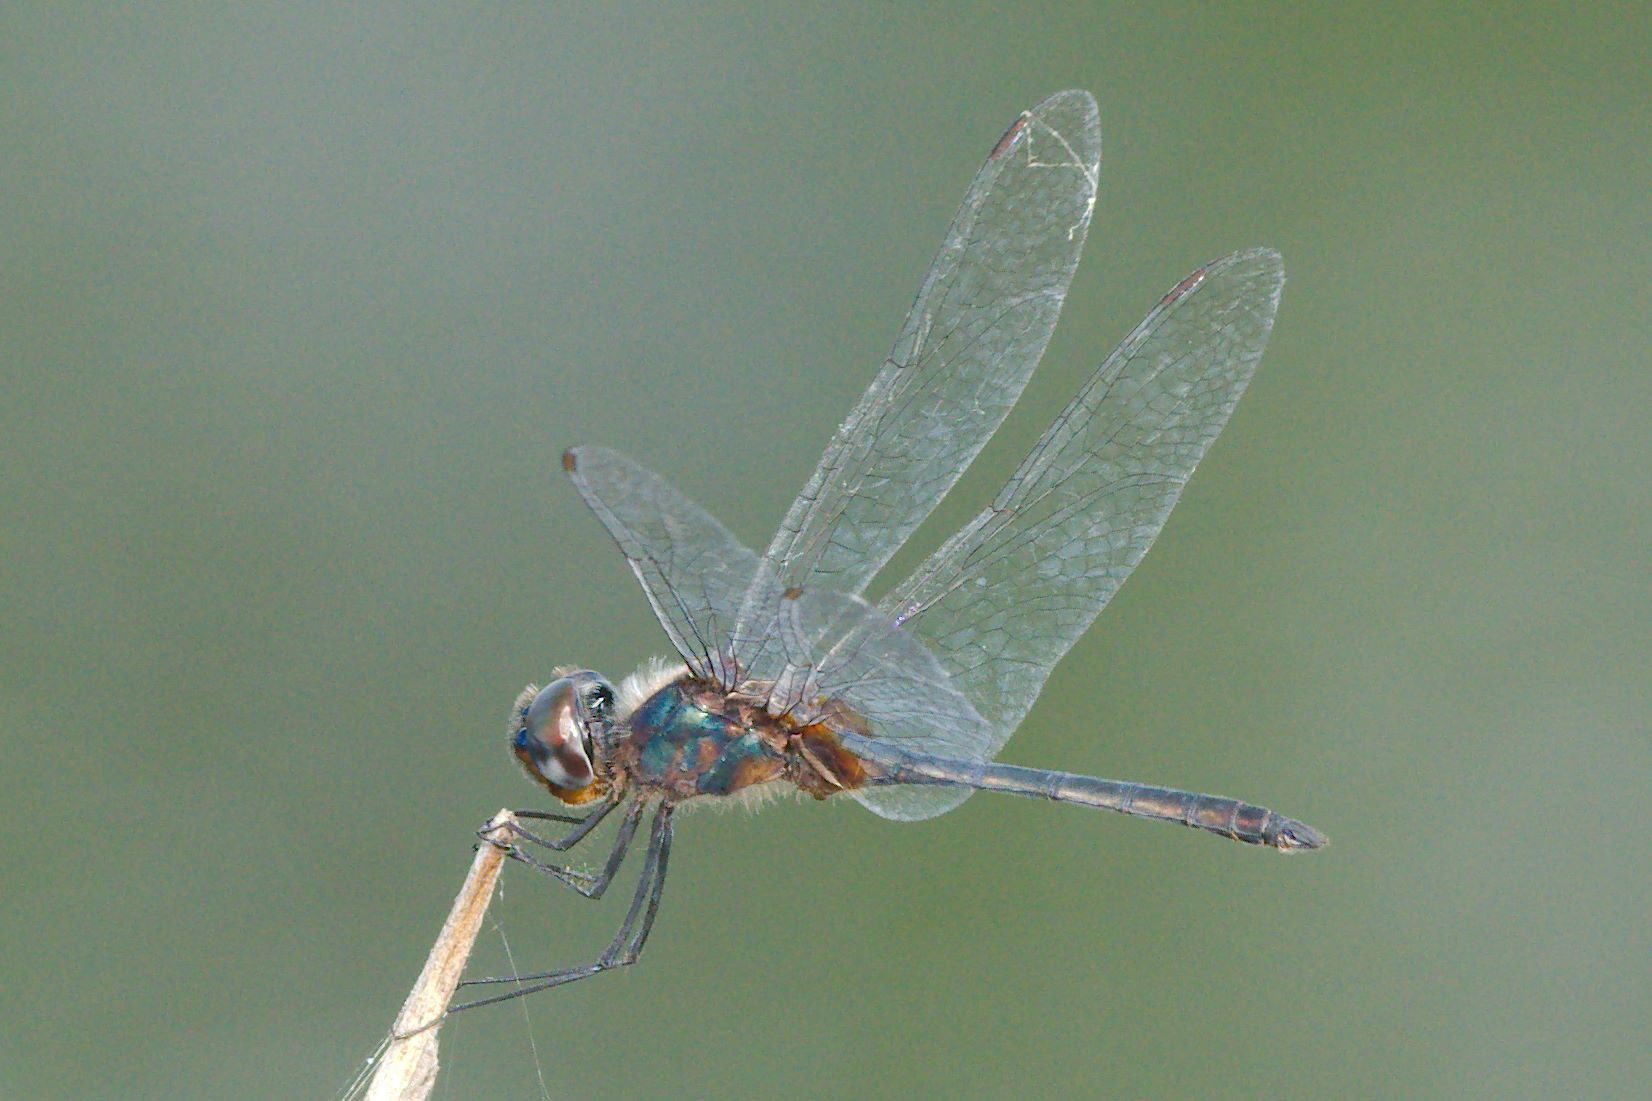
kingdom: Animalia
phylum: Arthropoda
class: Insecta
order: Odonata
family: Libellulidae
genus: Idiataphe
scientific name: Idiataphe cubensis
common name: Metallic pennant
